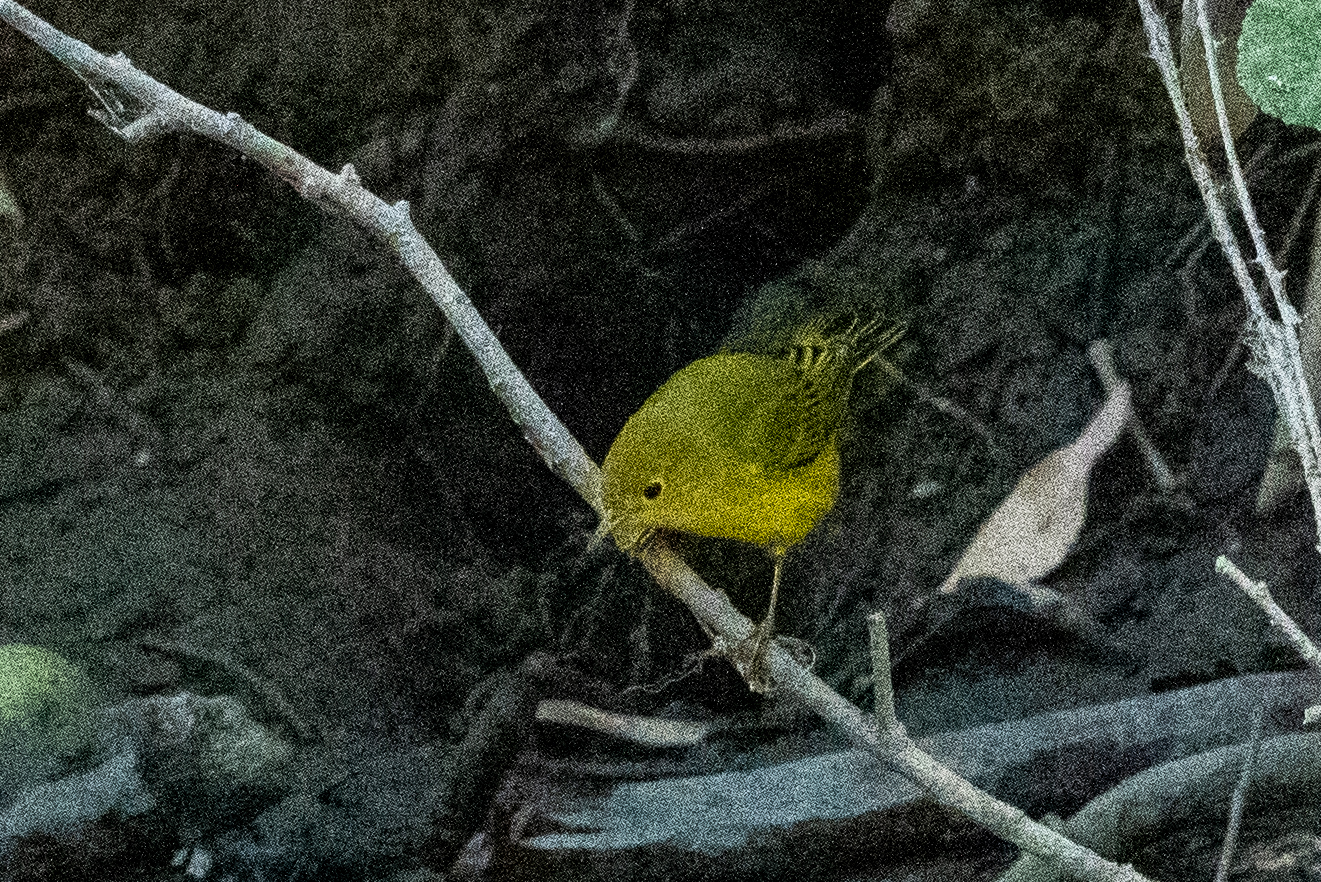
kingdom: Animalia
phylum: Chordata
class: Aves
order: Passeriformes
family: Parulidae
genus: Setophaga
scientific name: Setophaga petechia
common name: Yellow warbler
